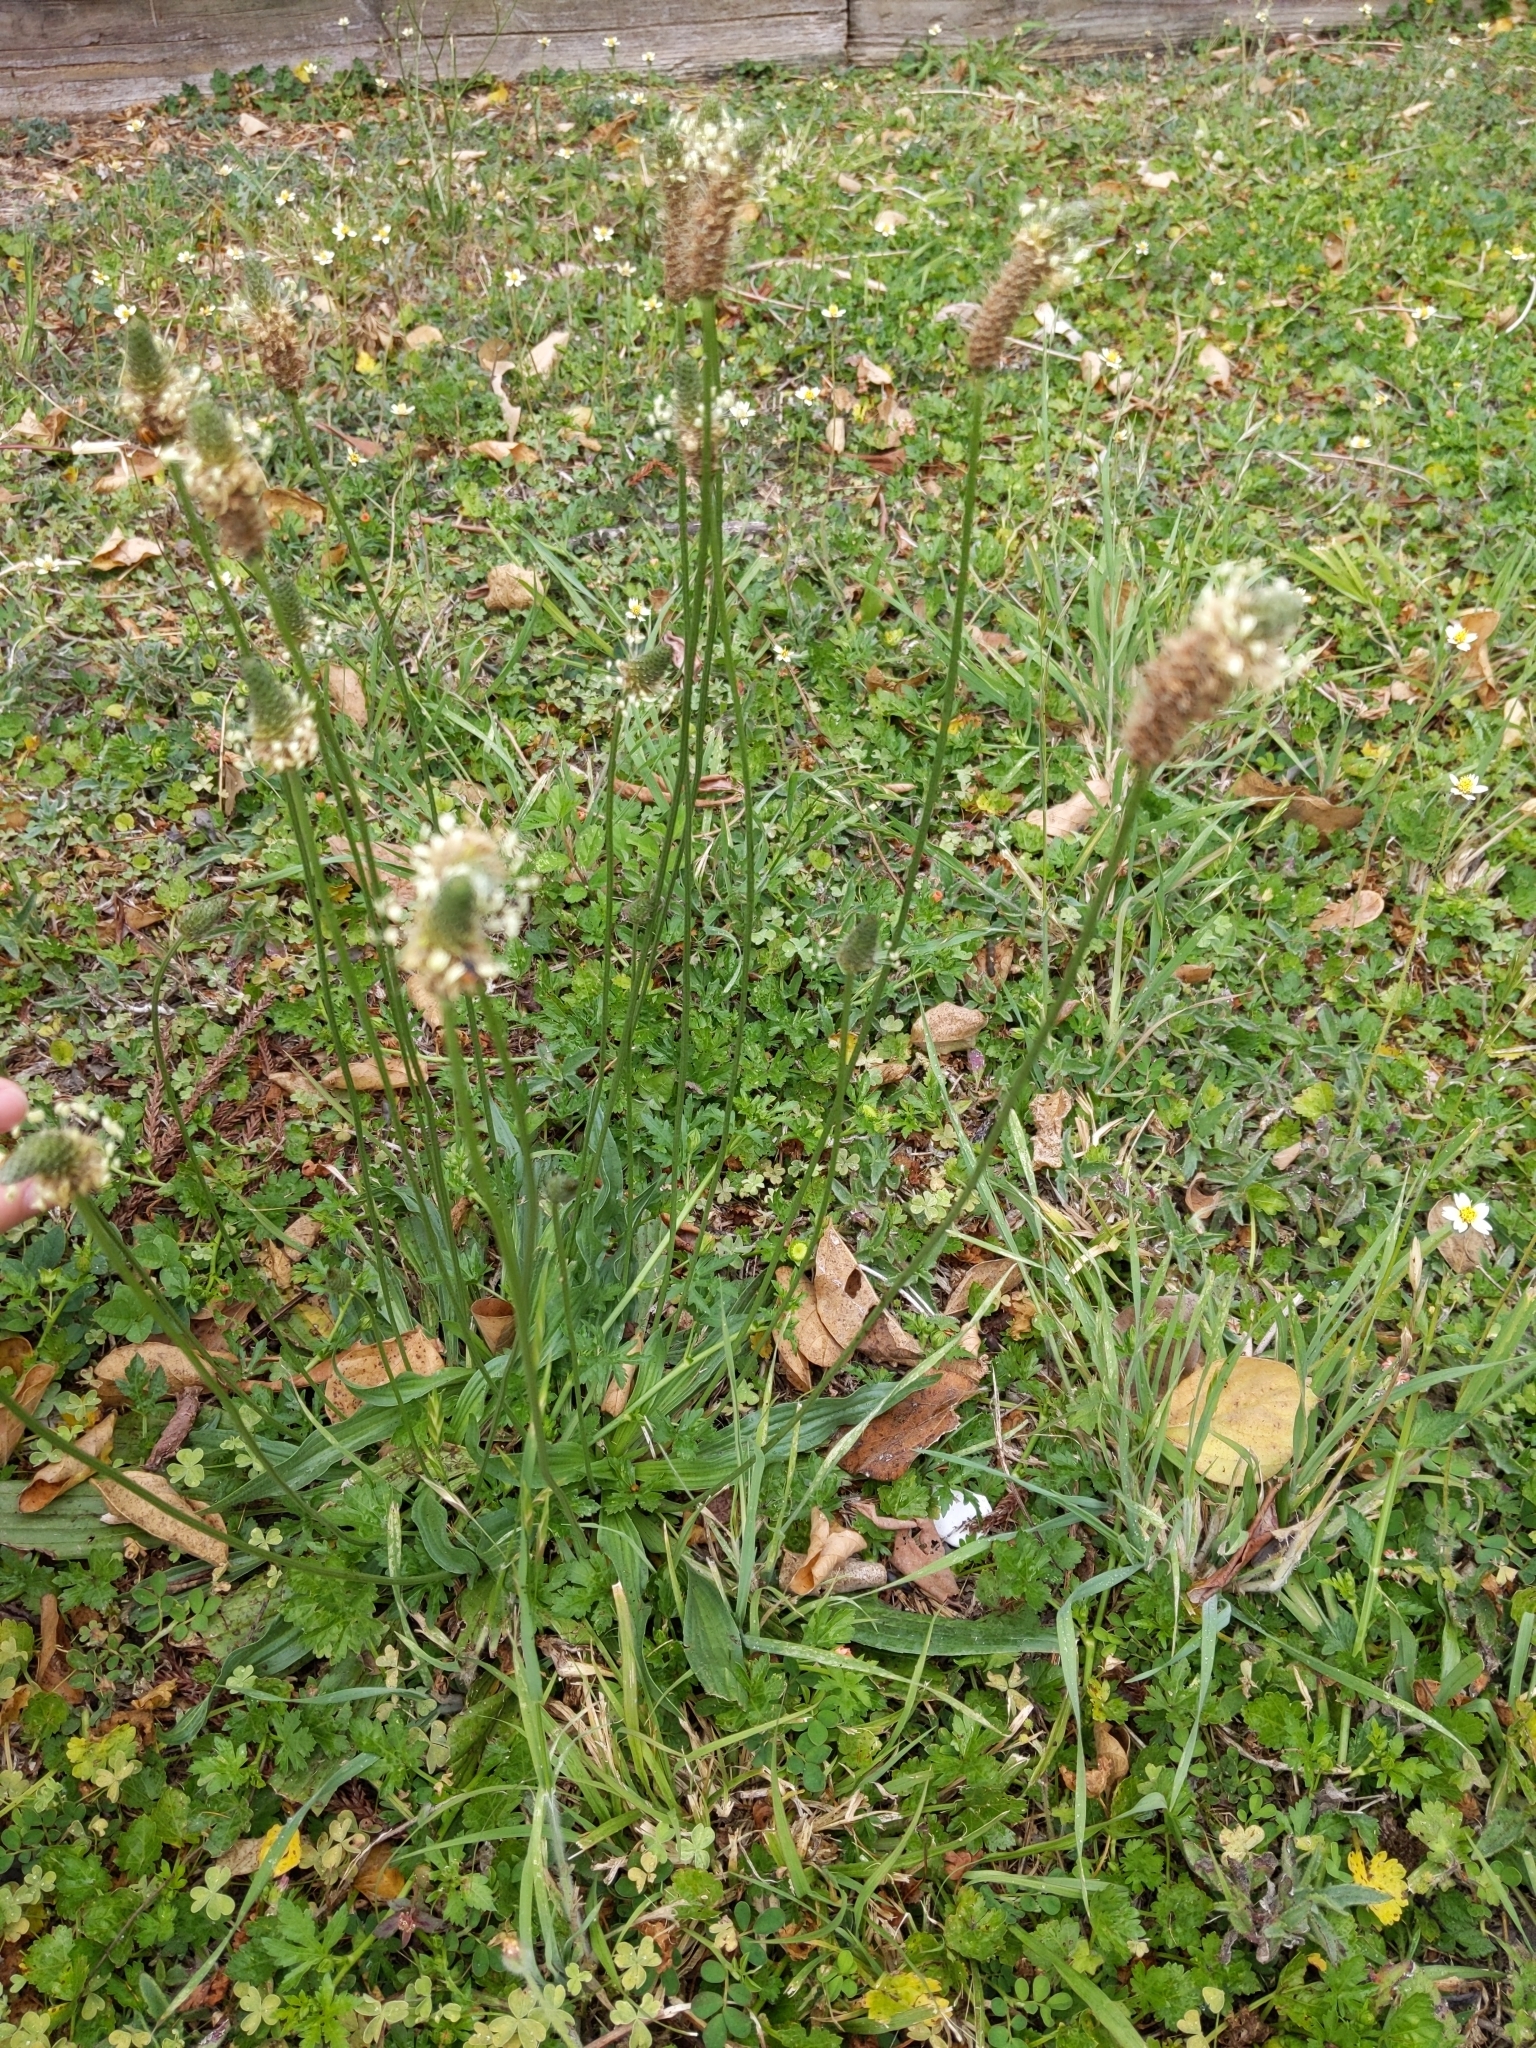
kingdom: Plantae
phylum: Tracheophyta
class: Magnoliopsida
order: Lamiales
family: Plantaginaceae
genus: Plantago
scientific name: Plantago lanceolata
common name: Ribwort plantain
